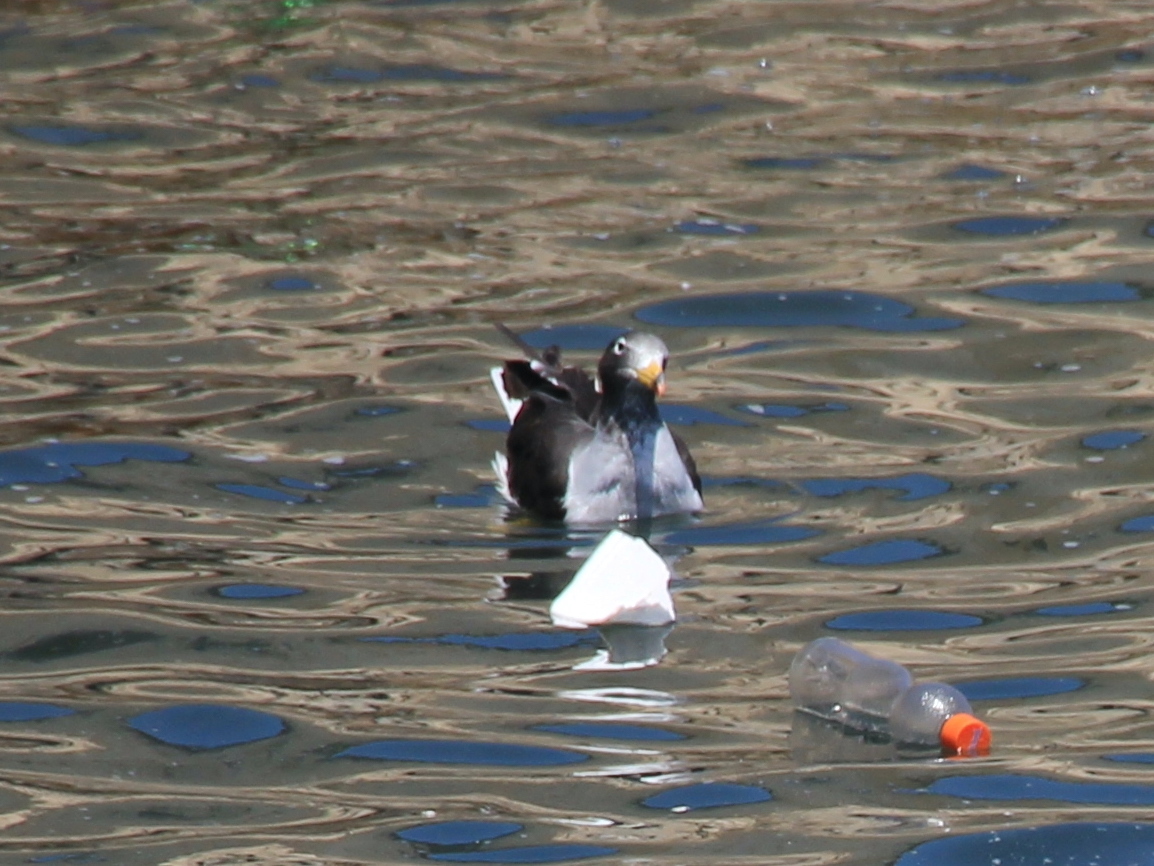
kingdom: Animalia
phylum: Chordata
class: Aves
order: Charadriiformes
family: Laridae
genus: Larus
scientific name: Larus belcheri
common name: Belcher's gull
